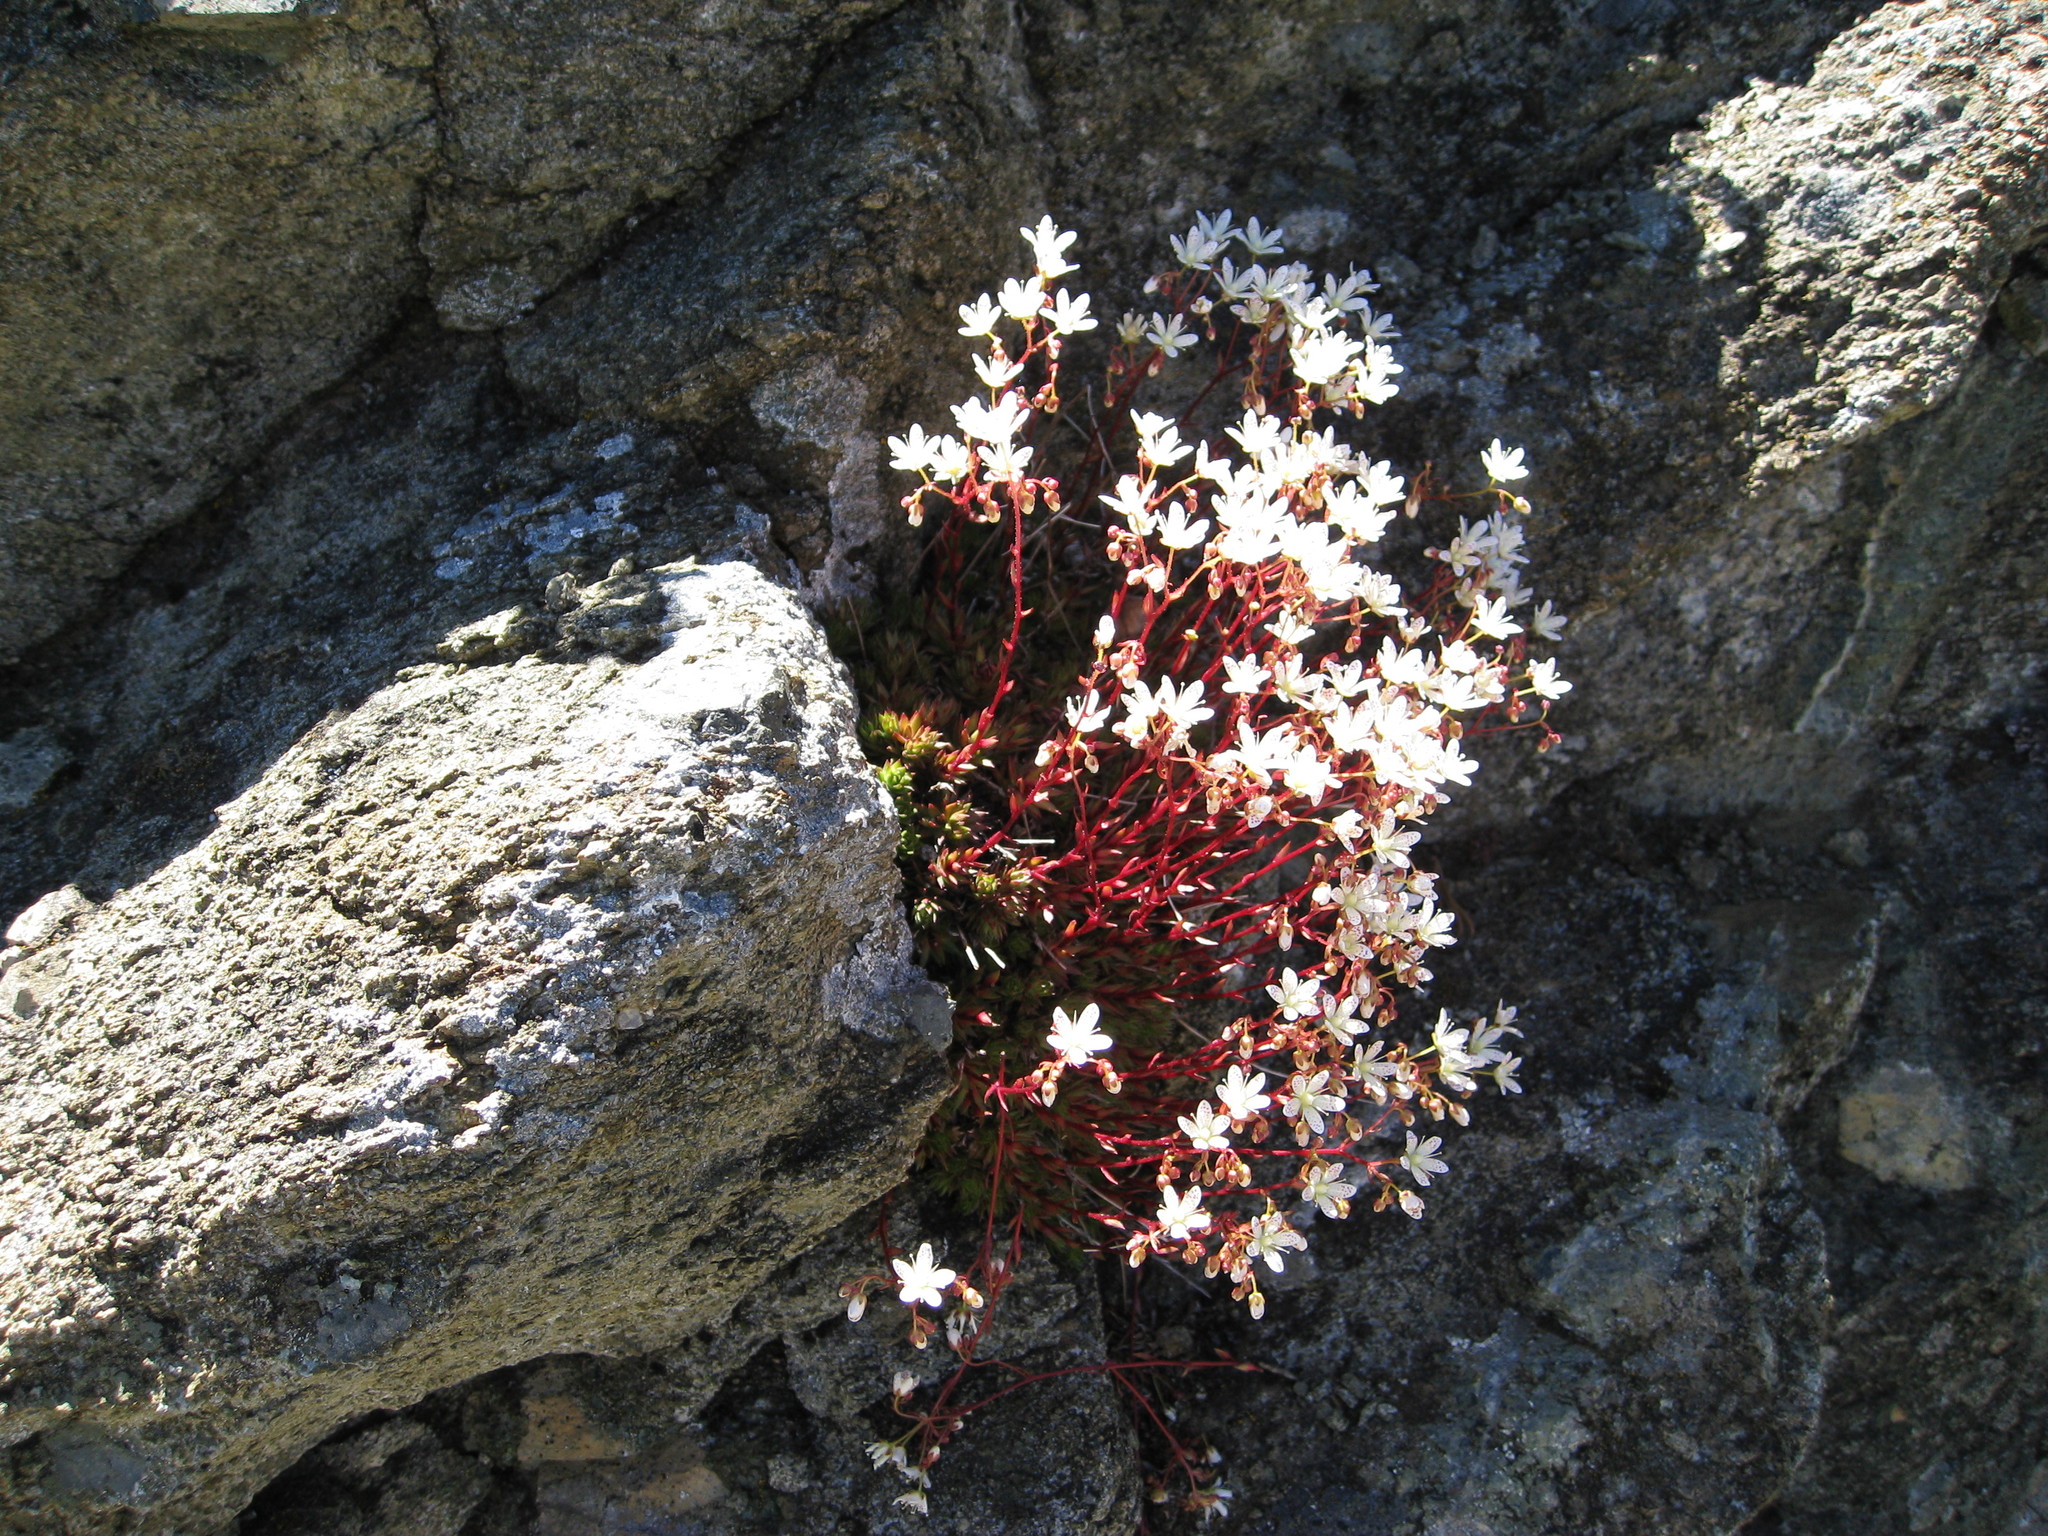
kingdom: Plantae
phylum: Tracheophyta
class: Magnoliopsida
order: Saxifragales
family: Saxifragaceae
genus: Saxifraga
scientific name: Saxifraga bronchialis
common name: Matted saxifrage
